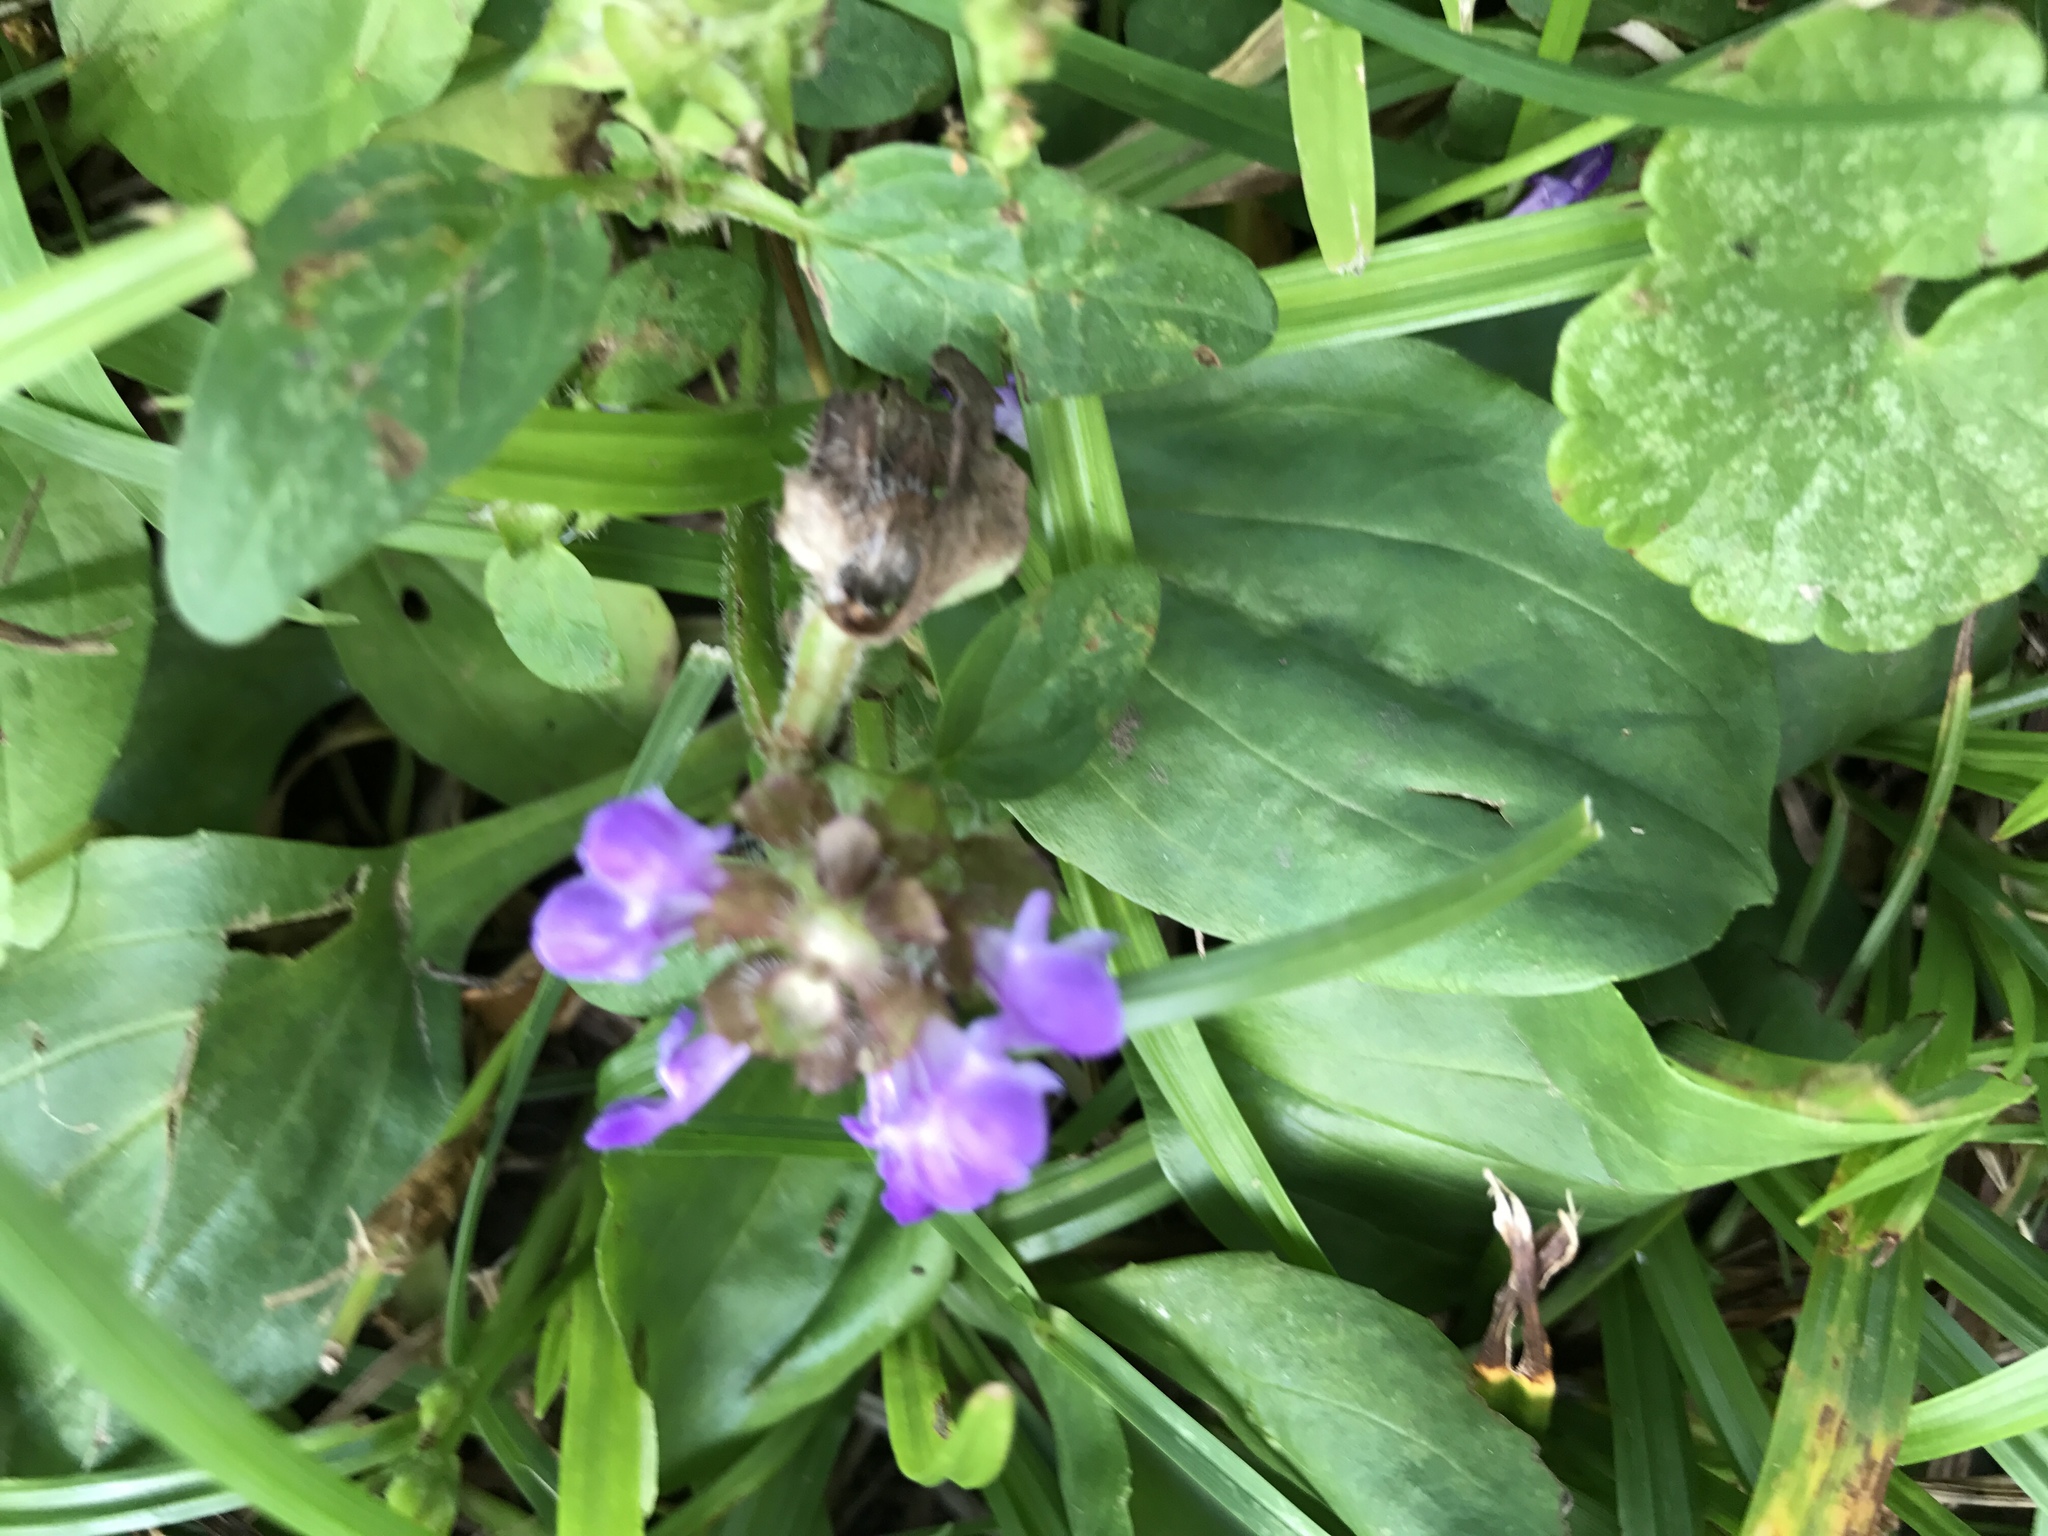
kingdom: Plantae
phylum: Tracheophyta
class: Magnoliopsida
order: Lamiales
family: Lamiaceae
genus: Prunella
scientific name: Prunella vulgaris
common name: Heal-all
